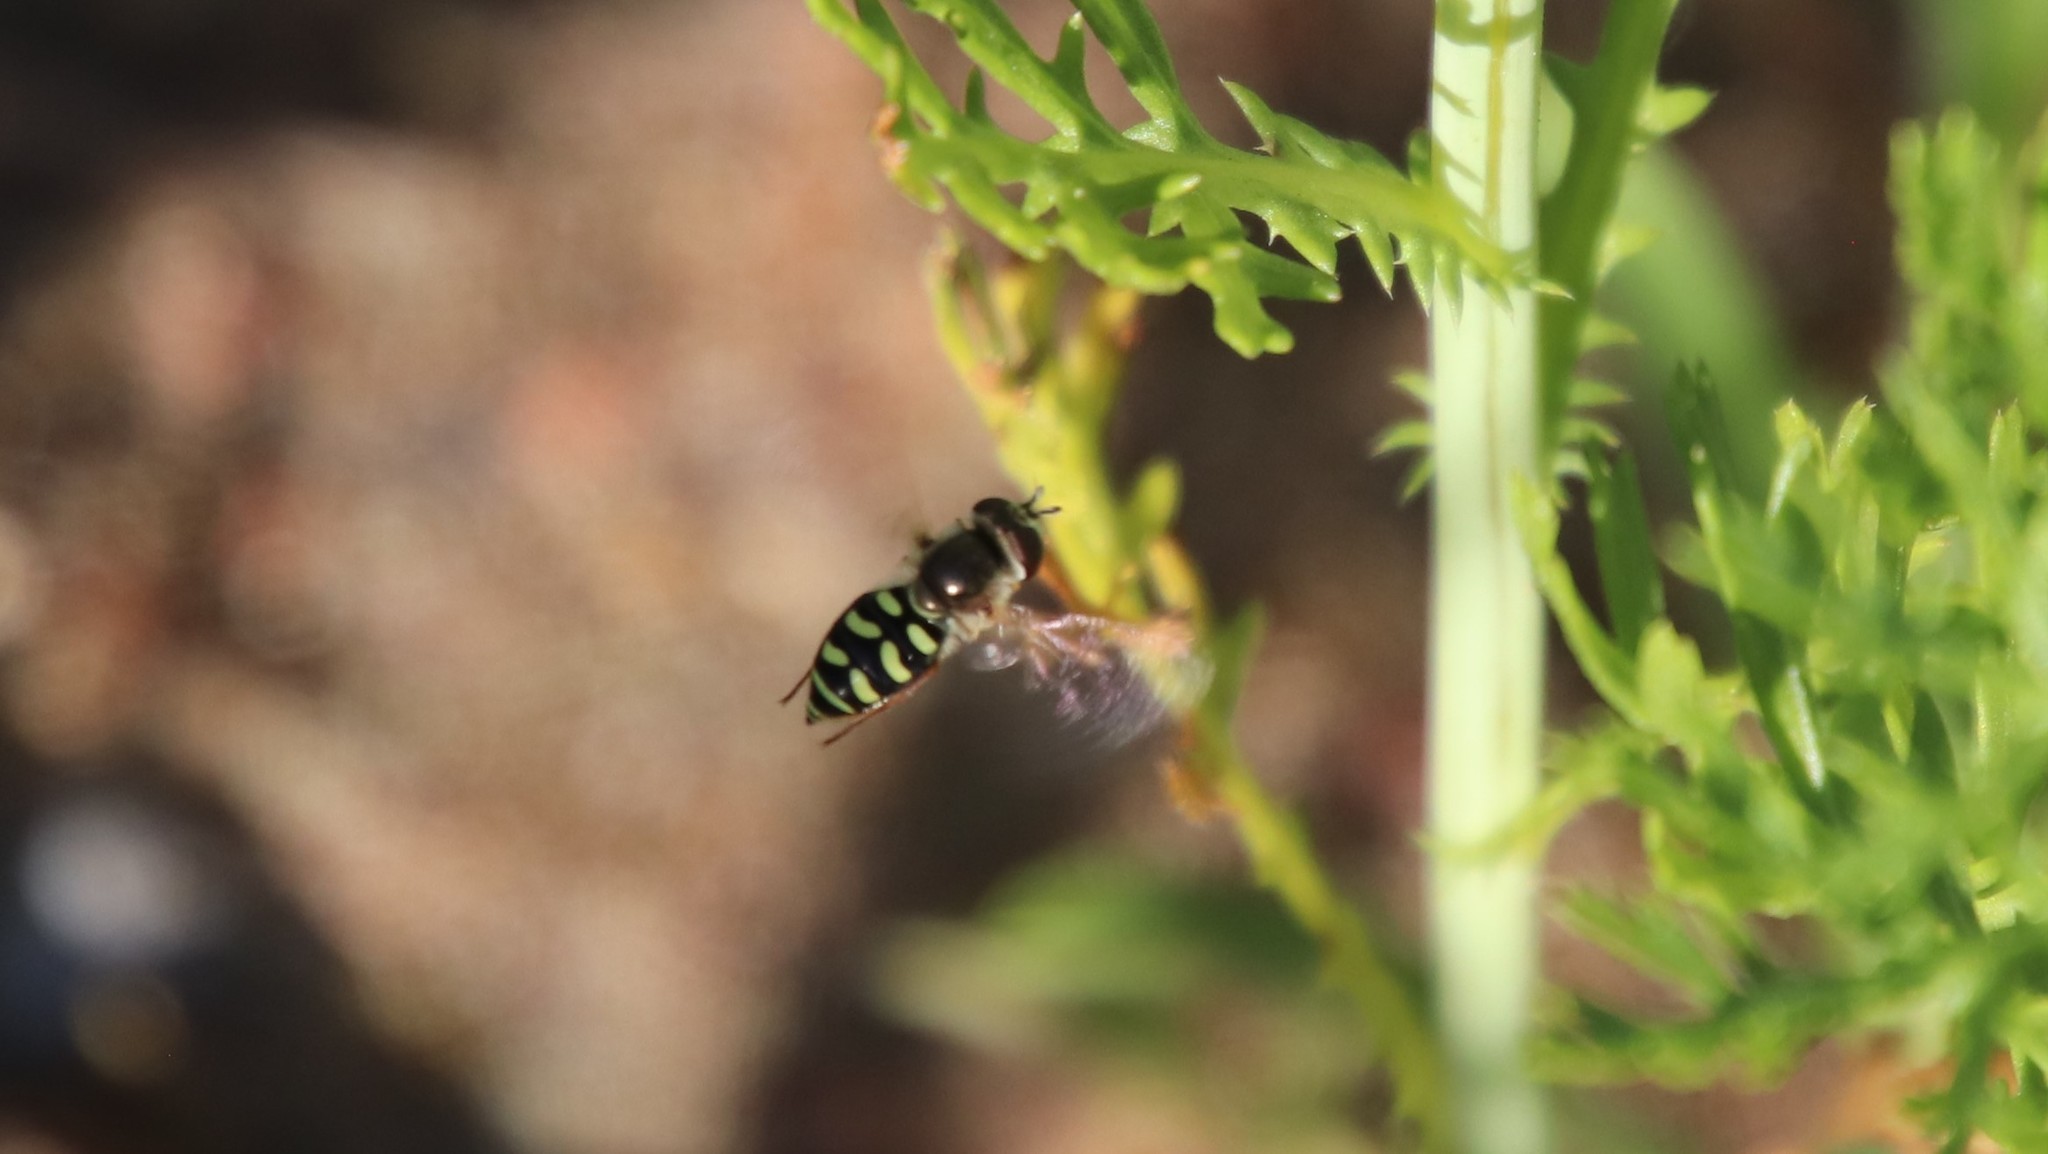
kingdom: Animalia
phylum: Arthropoda
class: Insecta
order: Diptera
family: Syrphidae
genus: Eupeodes
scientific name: Eupeodes volucris
